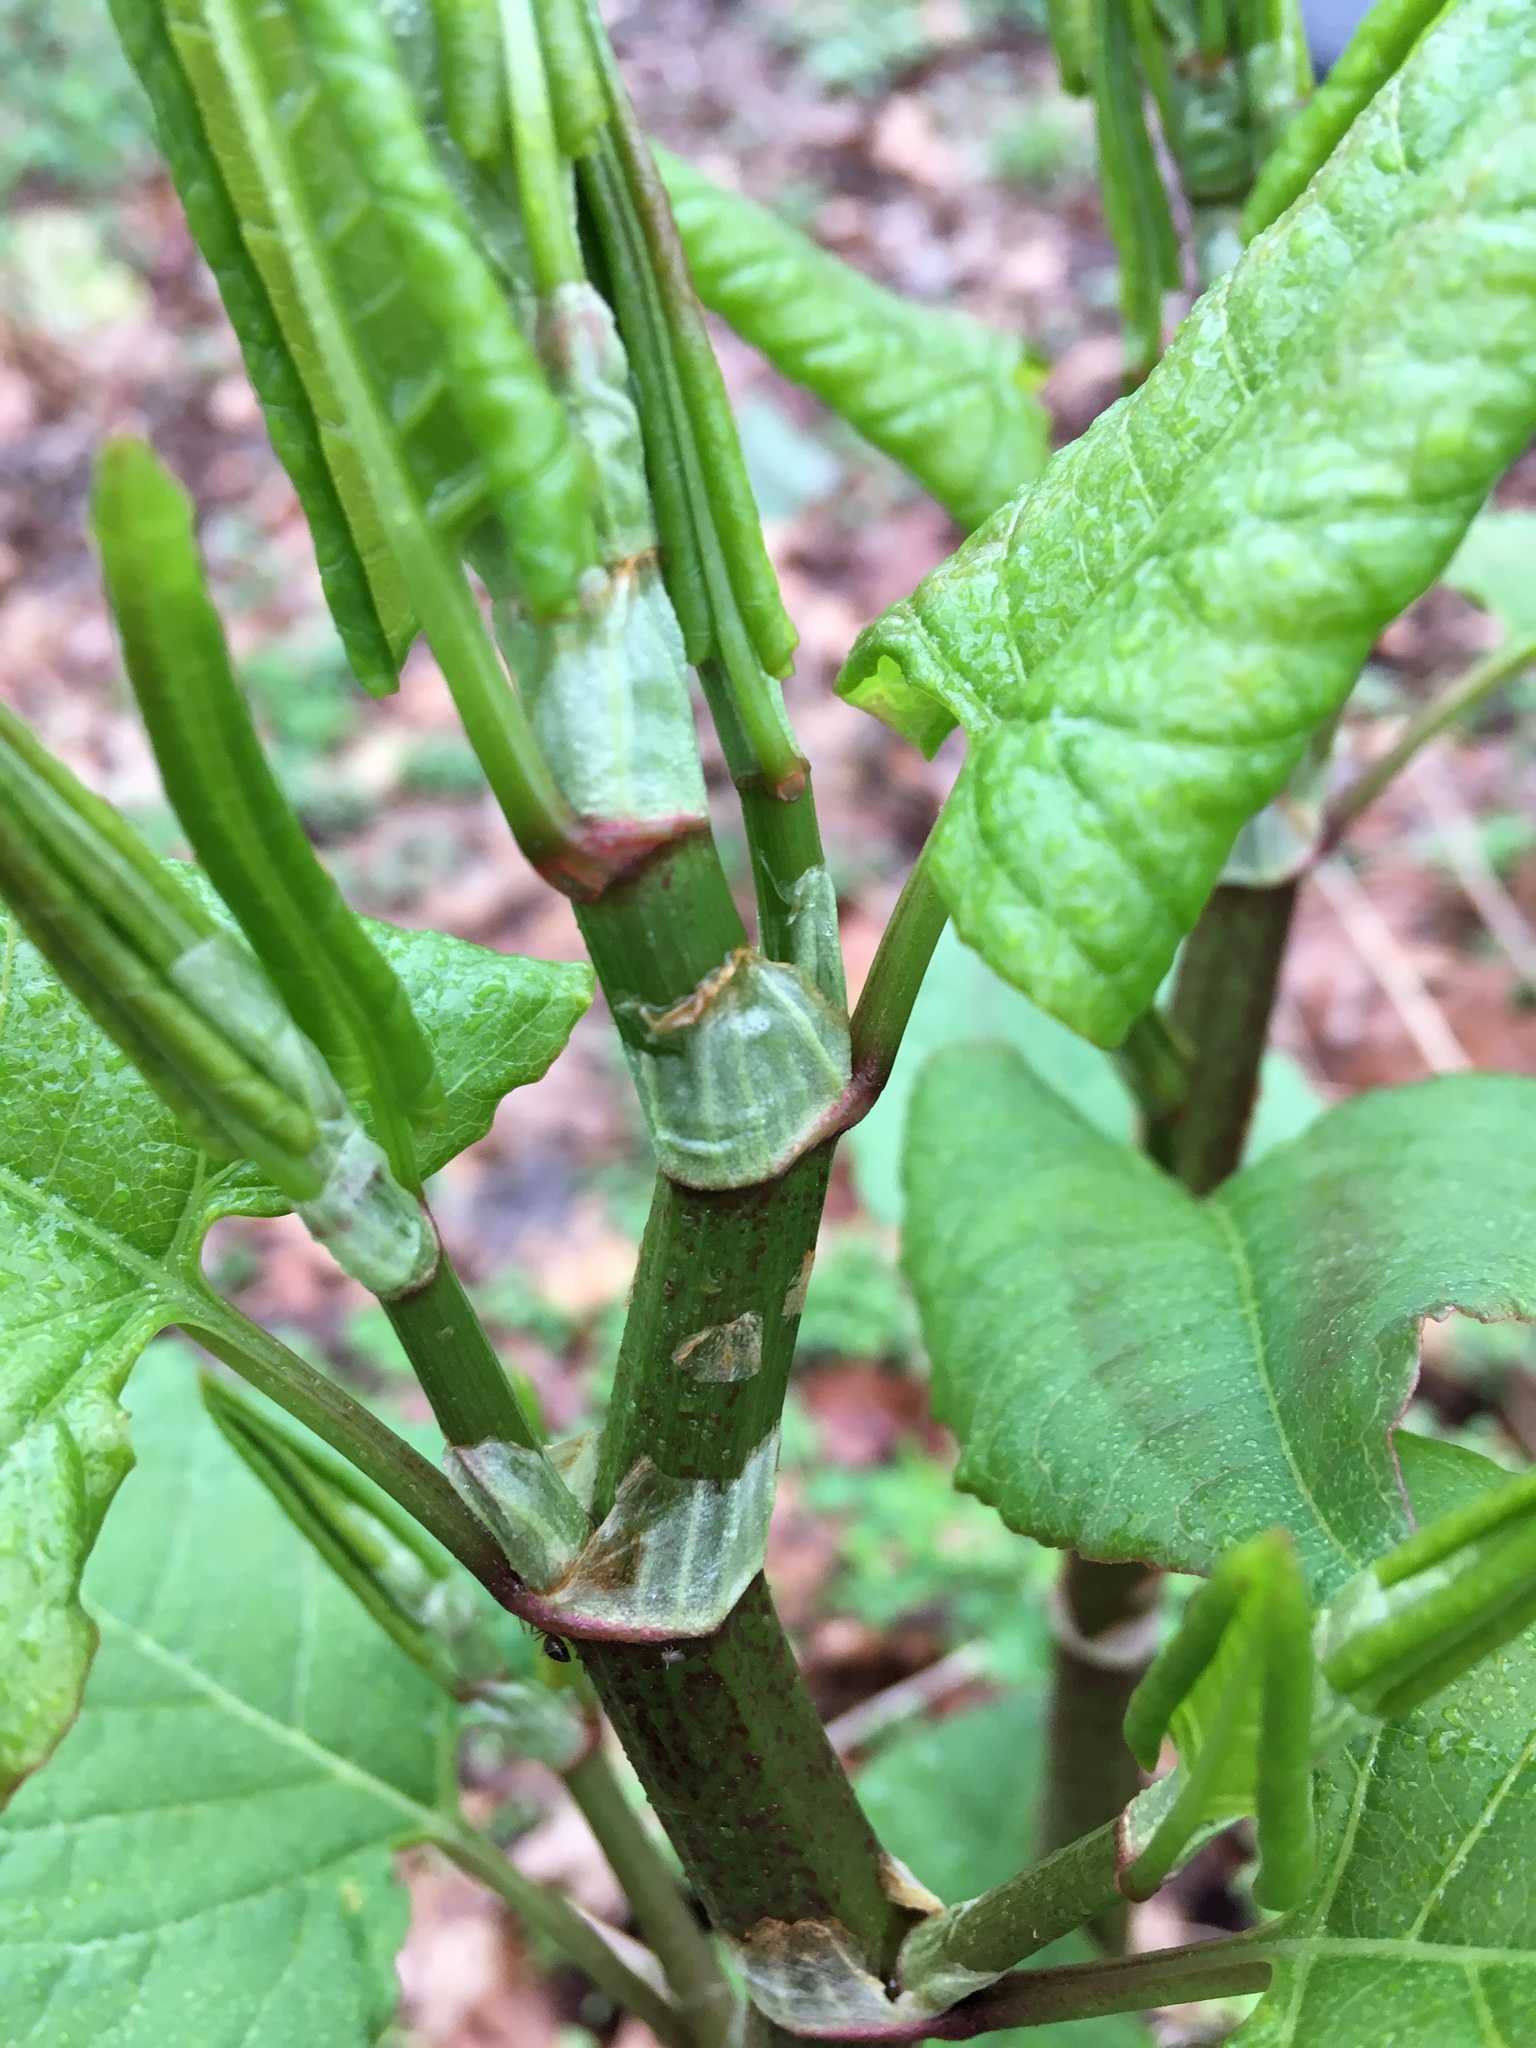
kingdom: Plantae
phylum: Tracheophyta
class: Magnoliopsida
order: Caryophyllales
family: Polygonaceae
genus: Reynoutria
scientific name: Reynoutria japonica
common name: Japanese knotweed
